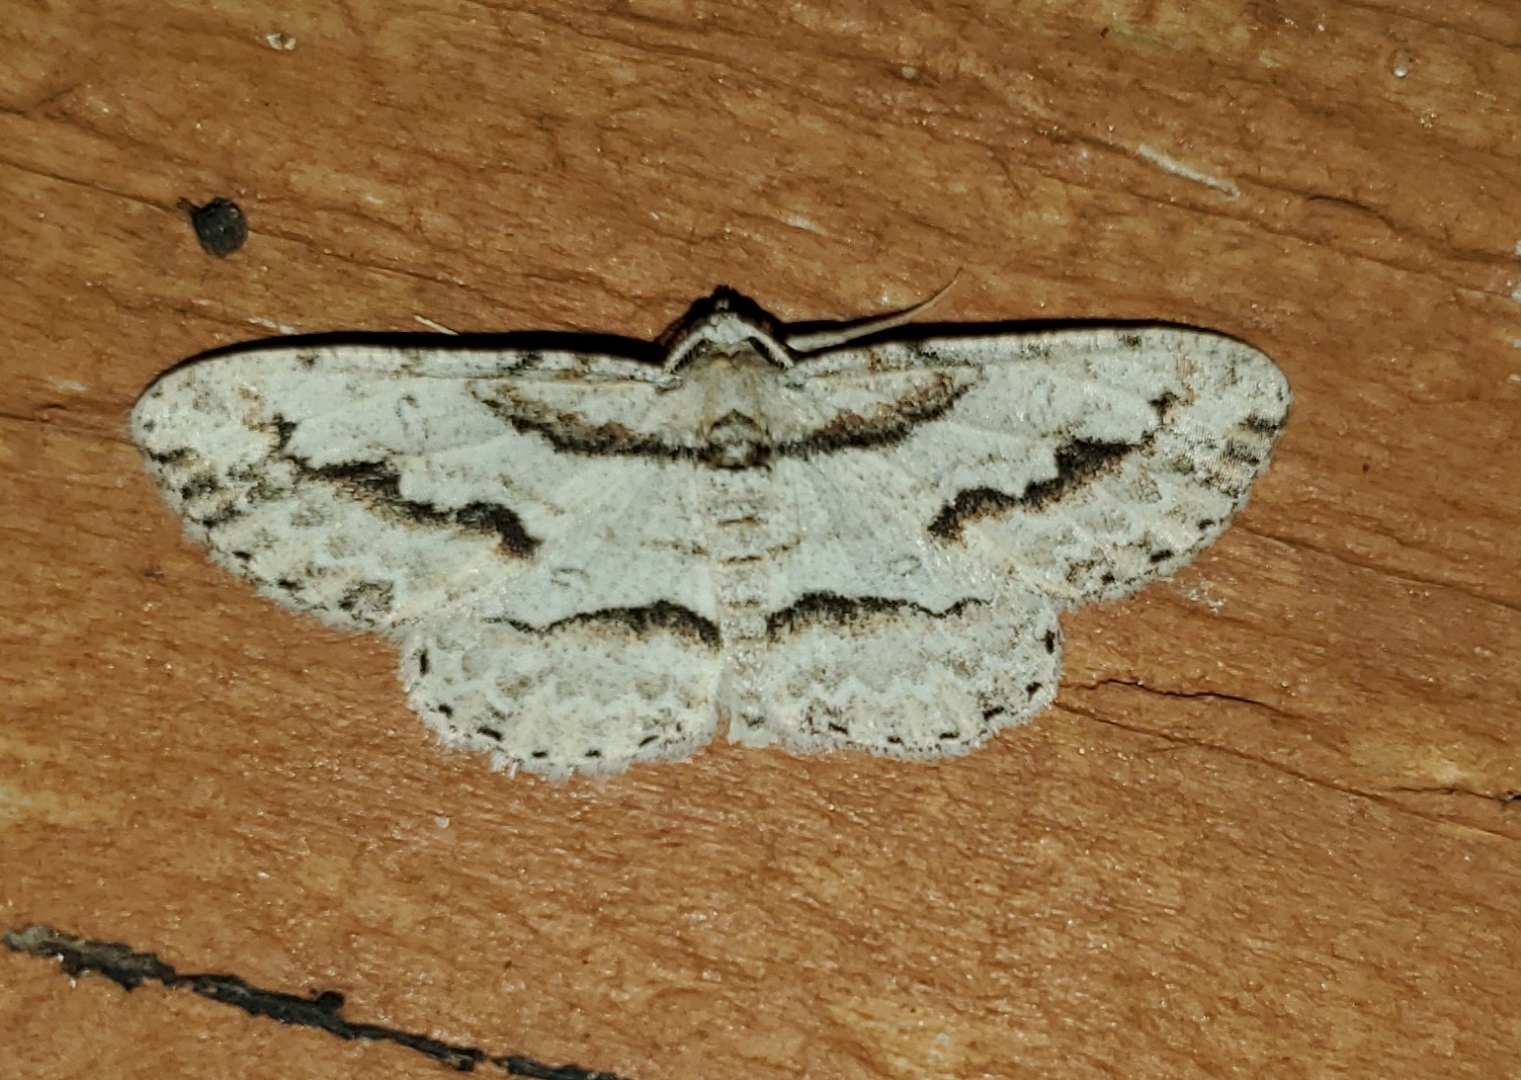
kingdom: Animalia
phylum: Arthropoda
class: Insecta
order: Lepidoptera
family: Geometridae
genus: Iridopsis
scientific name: Iridopsis pergracilis
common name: Cypress looper
